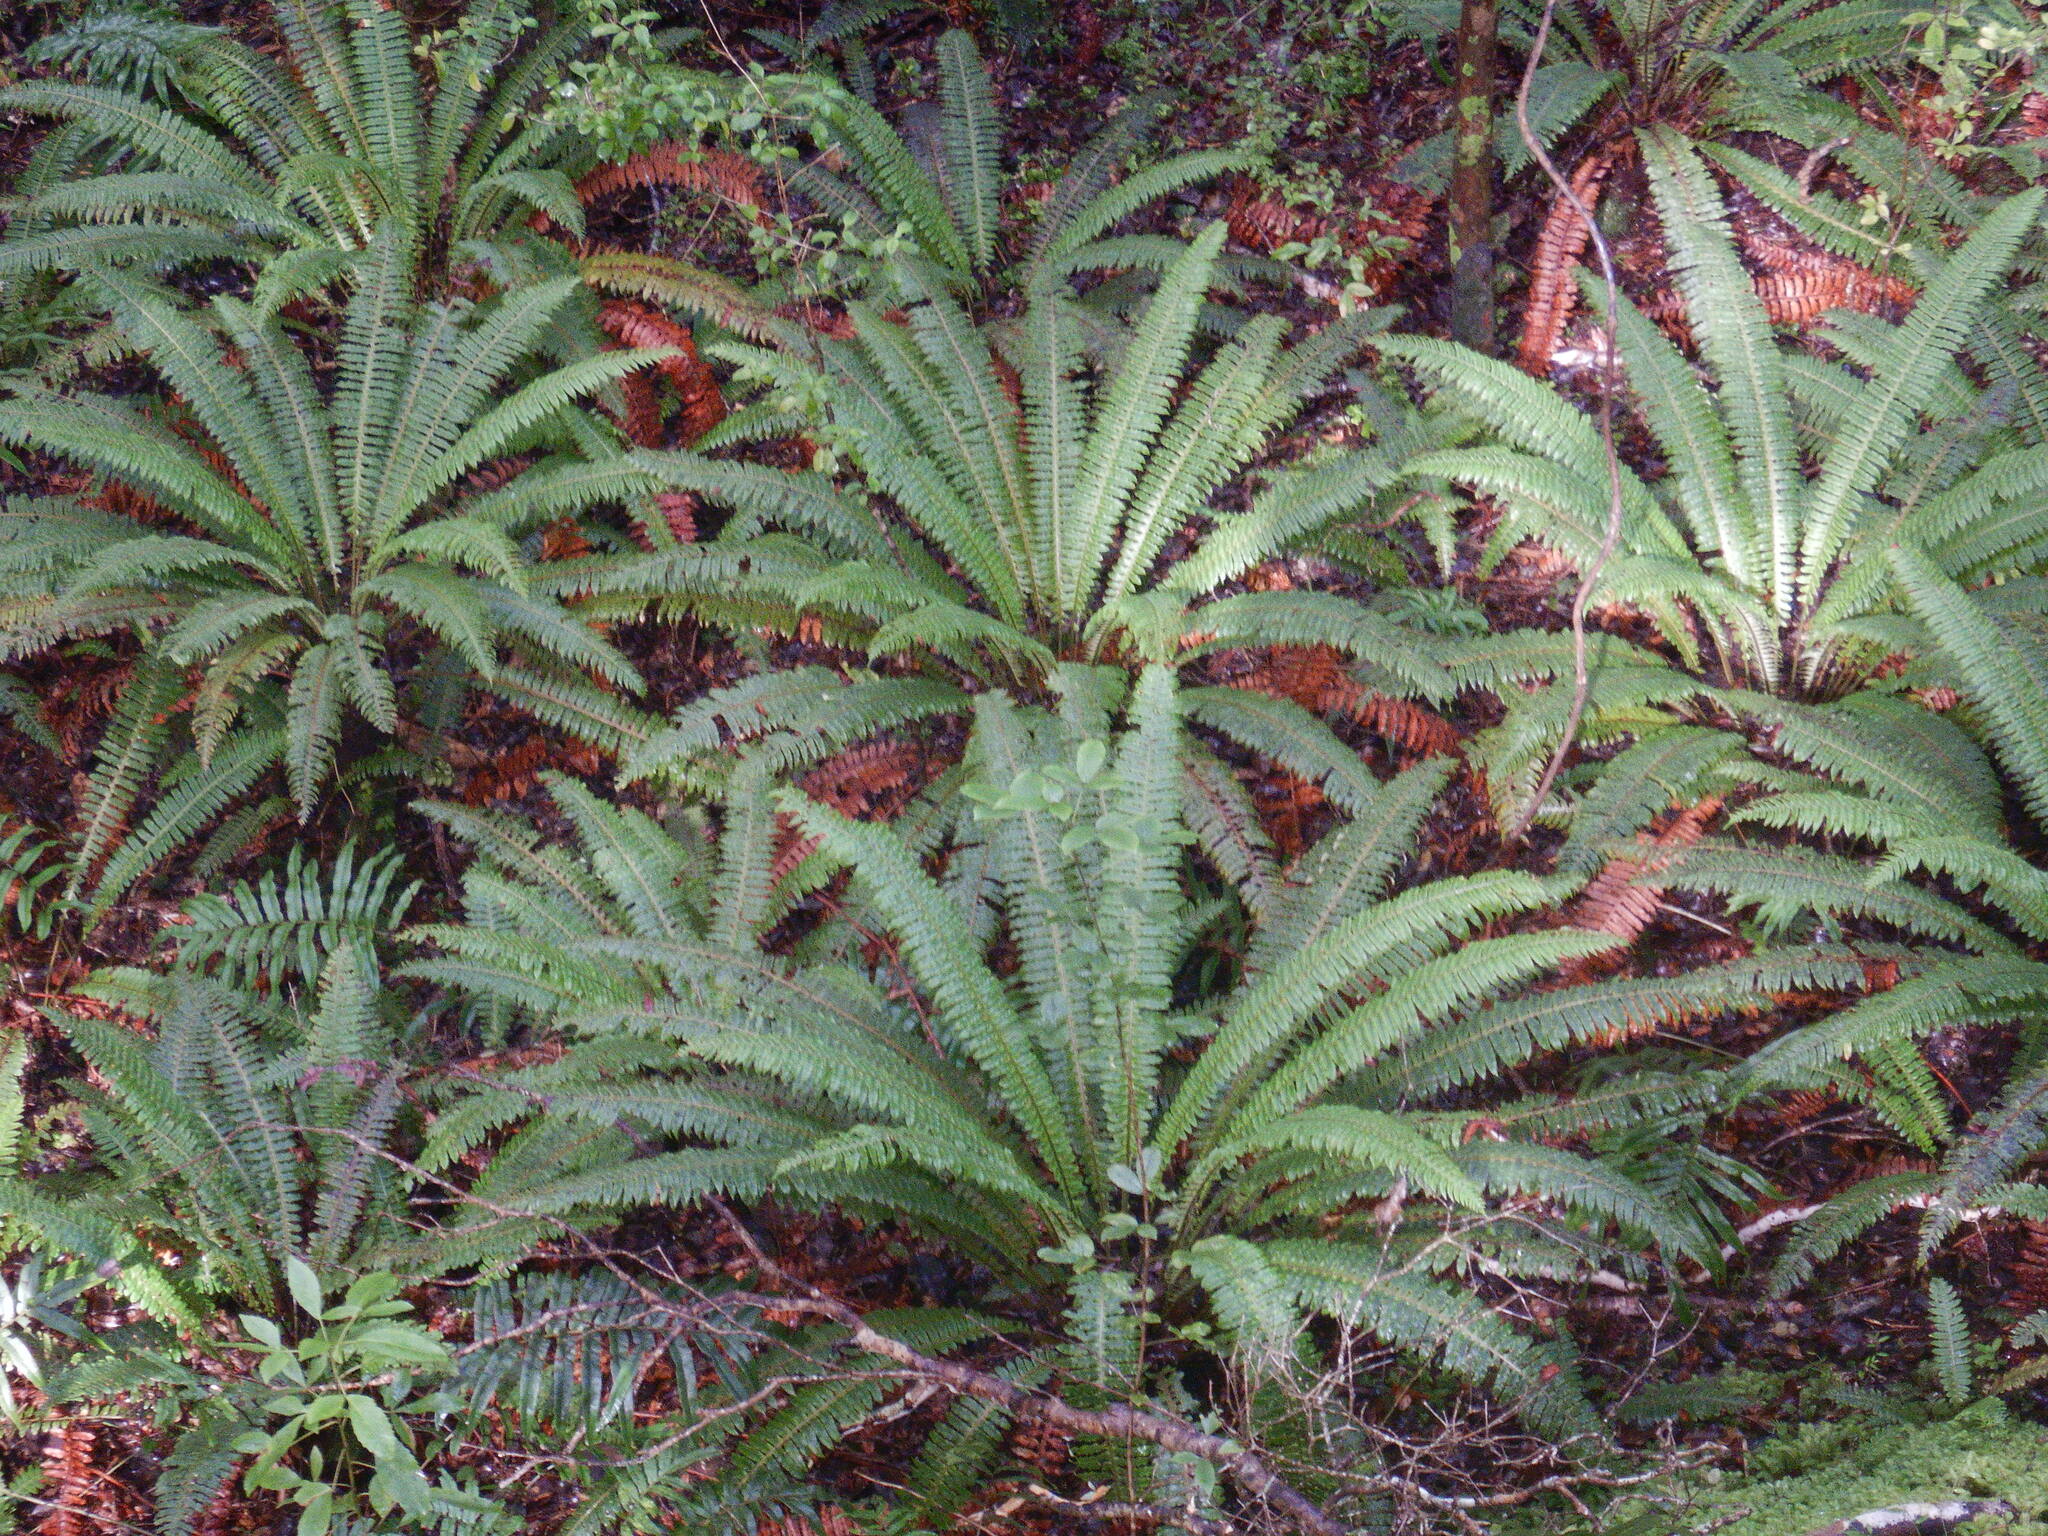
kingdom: Plantae
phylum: Tracheophyta
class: Polypodiopsida
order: Polypodiales
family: Blechnaceae
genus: Lomaria
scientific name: Lomaria discolor
